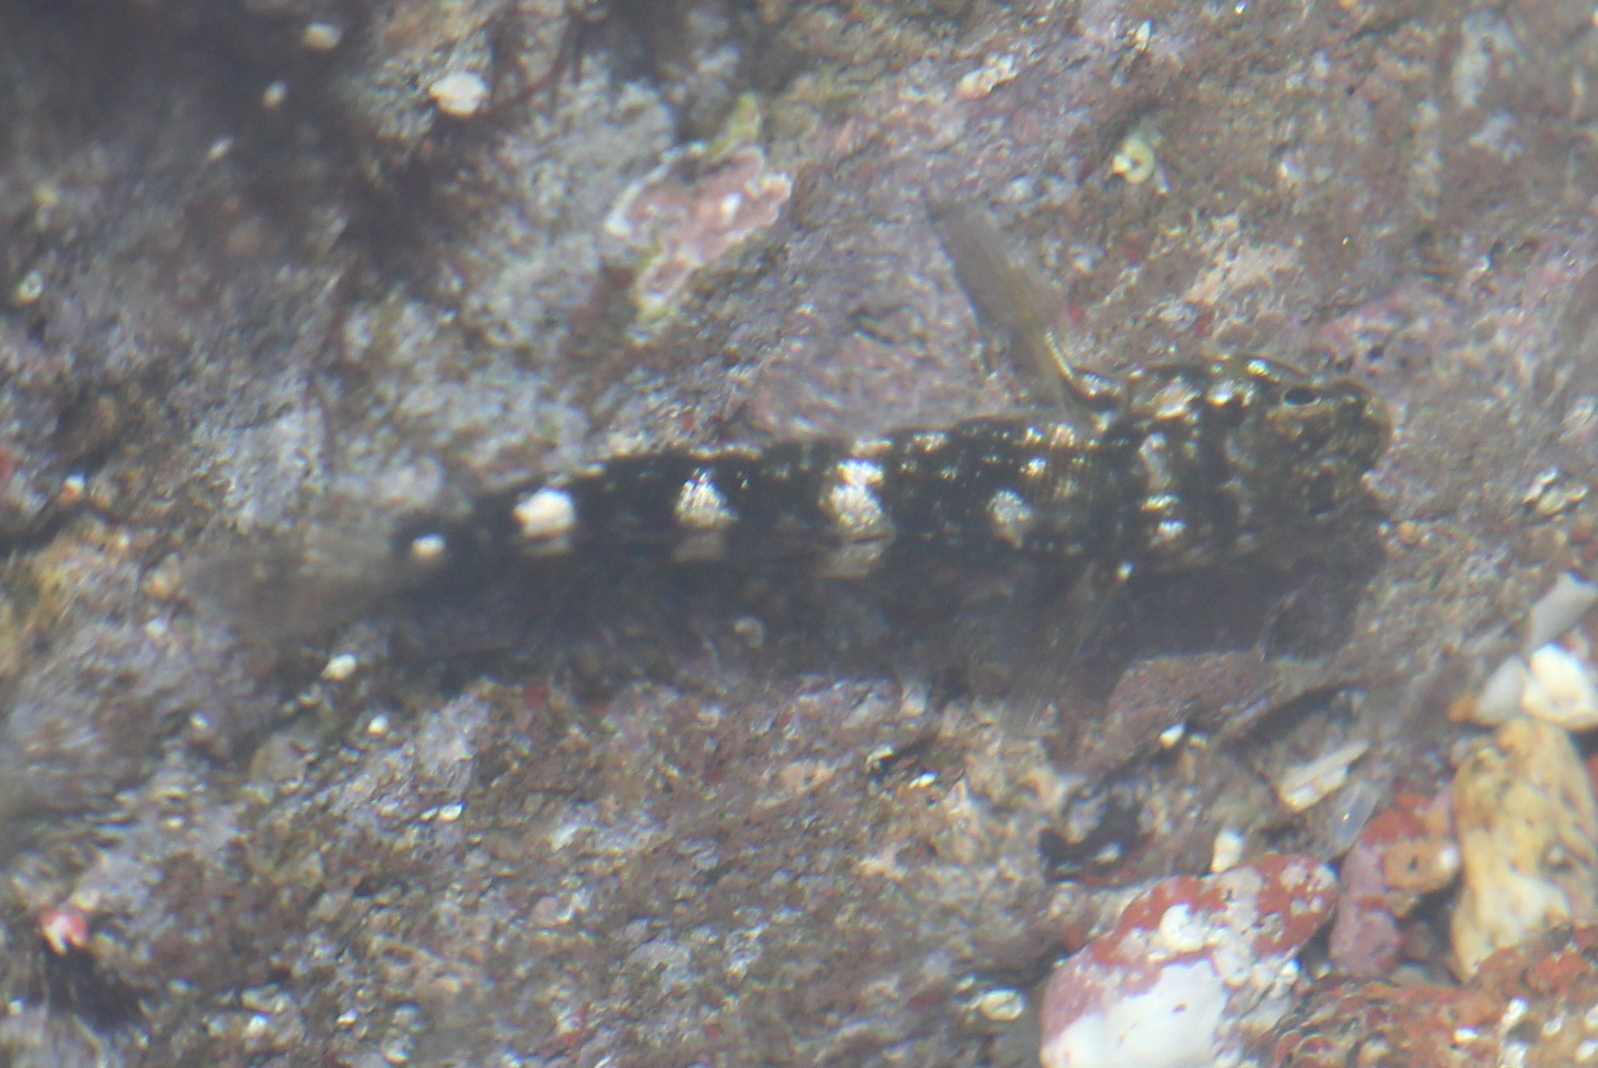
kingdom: Animalia
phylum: Chordata
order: Perciformes
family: Gobiidae
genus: Mauligobius
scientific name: Mauligobius maderensis
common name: Rock goby
